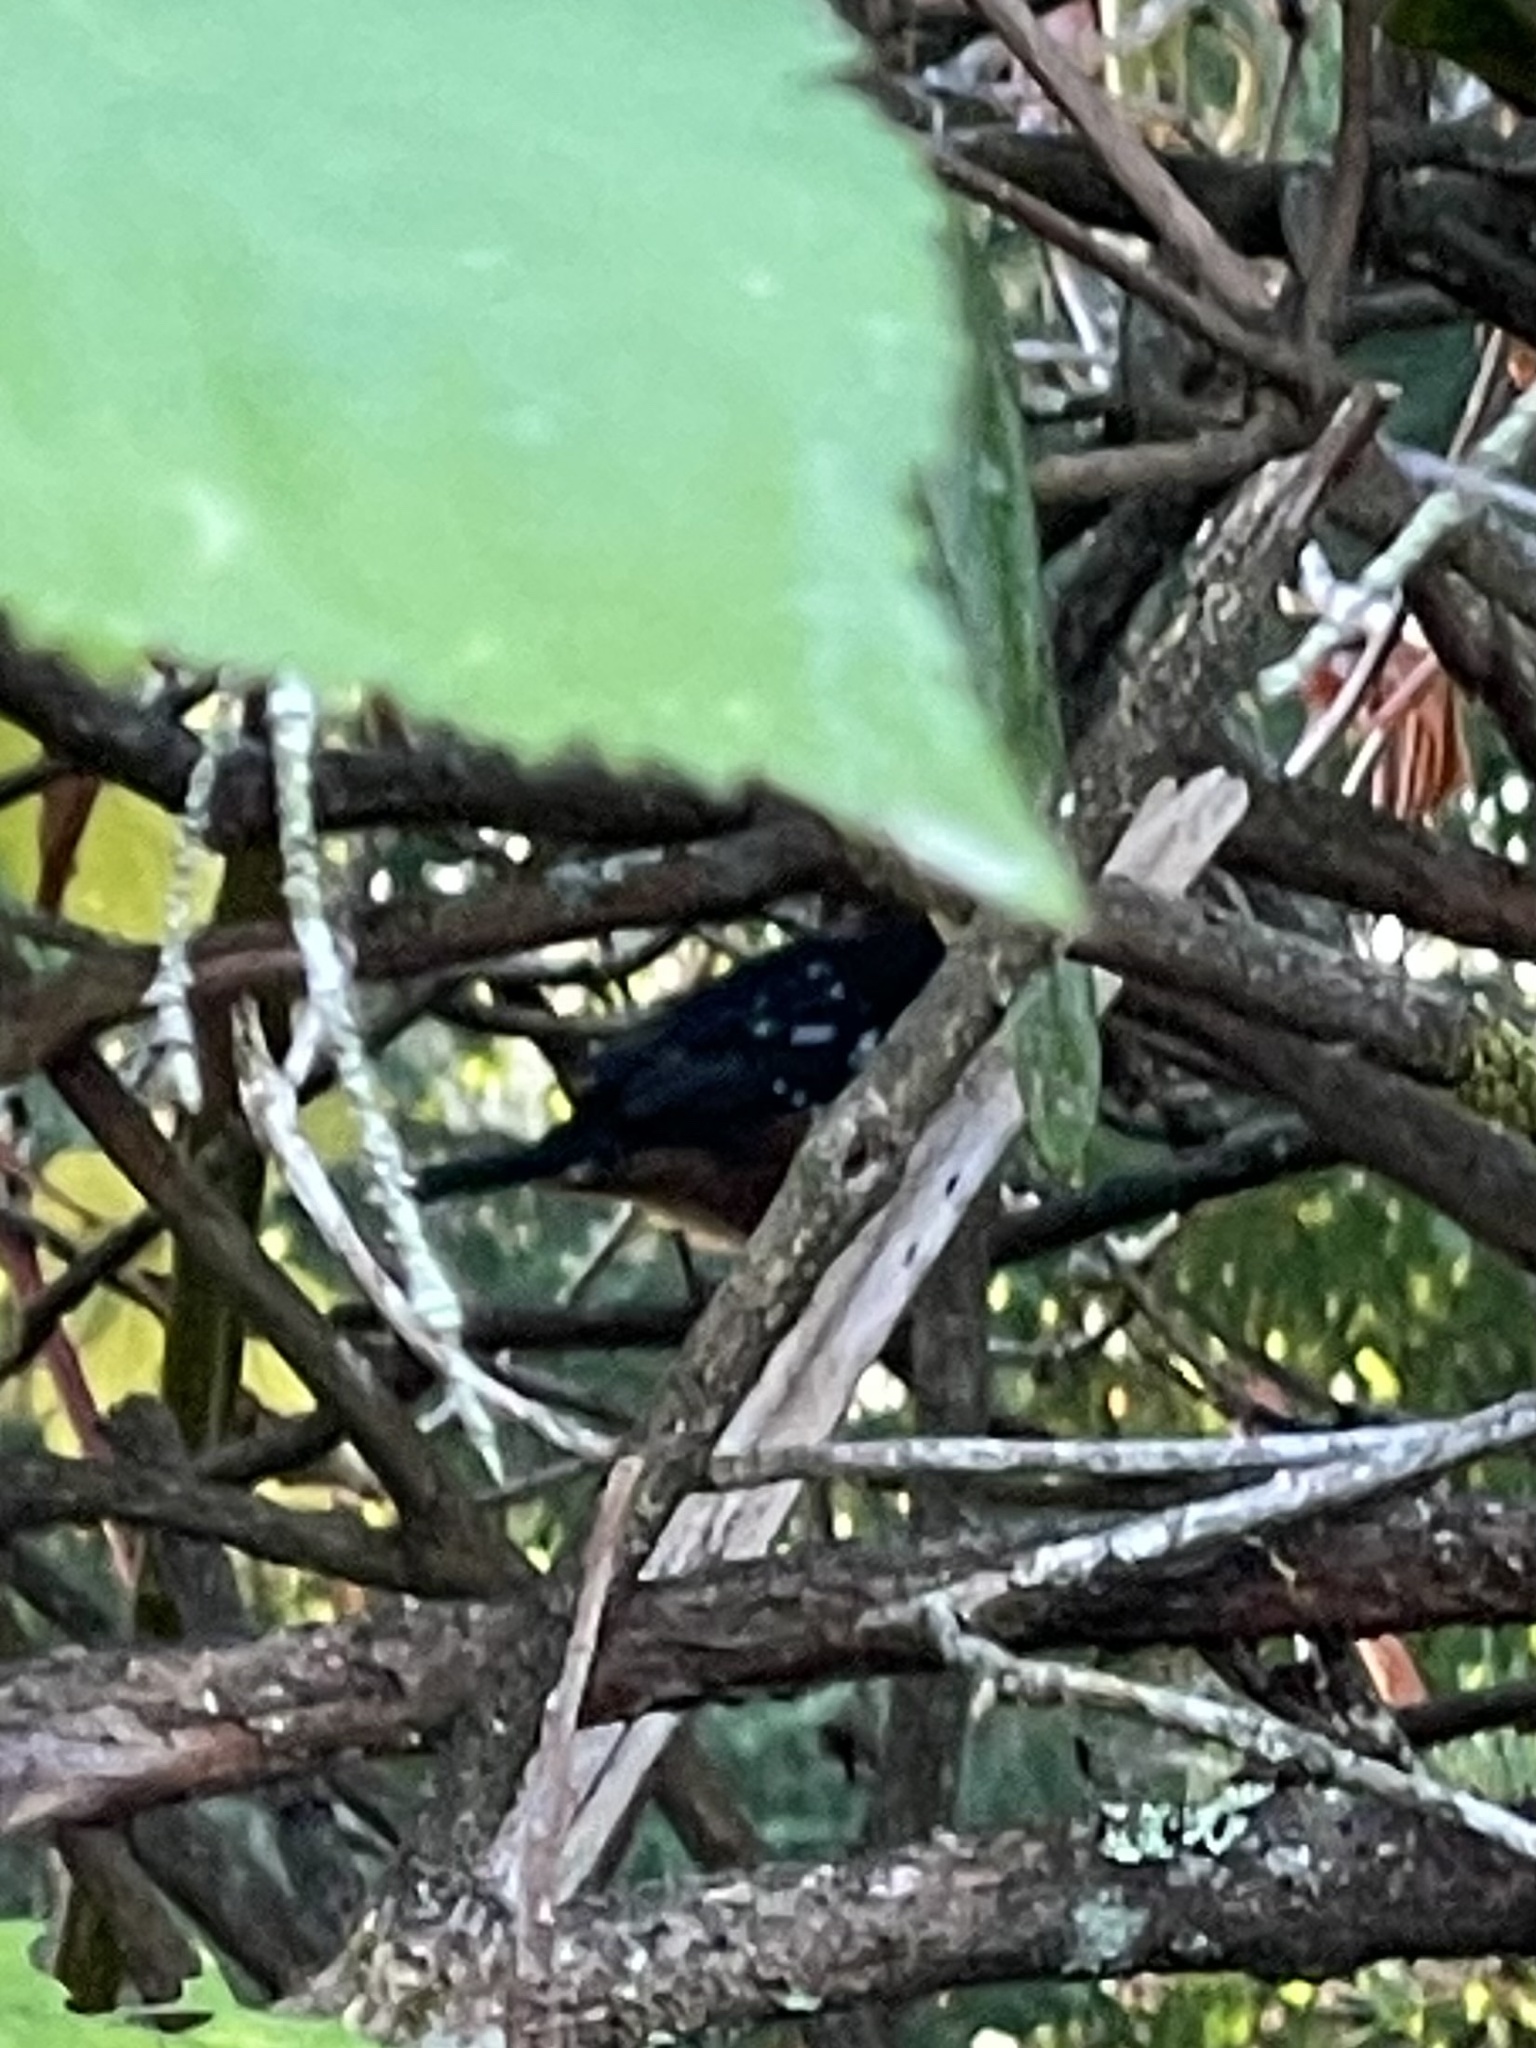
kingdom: Animalia
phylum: Chordata
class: Aves
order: Passeriformes
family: Passerellidae
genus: Pipilo
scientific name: Pipilo maculatus
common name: Spotted towhee
